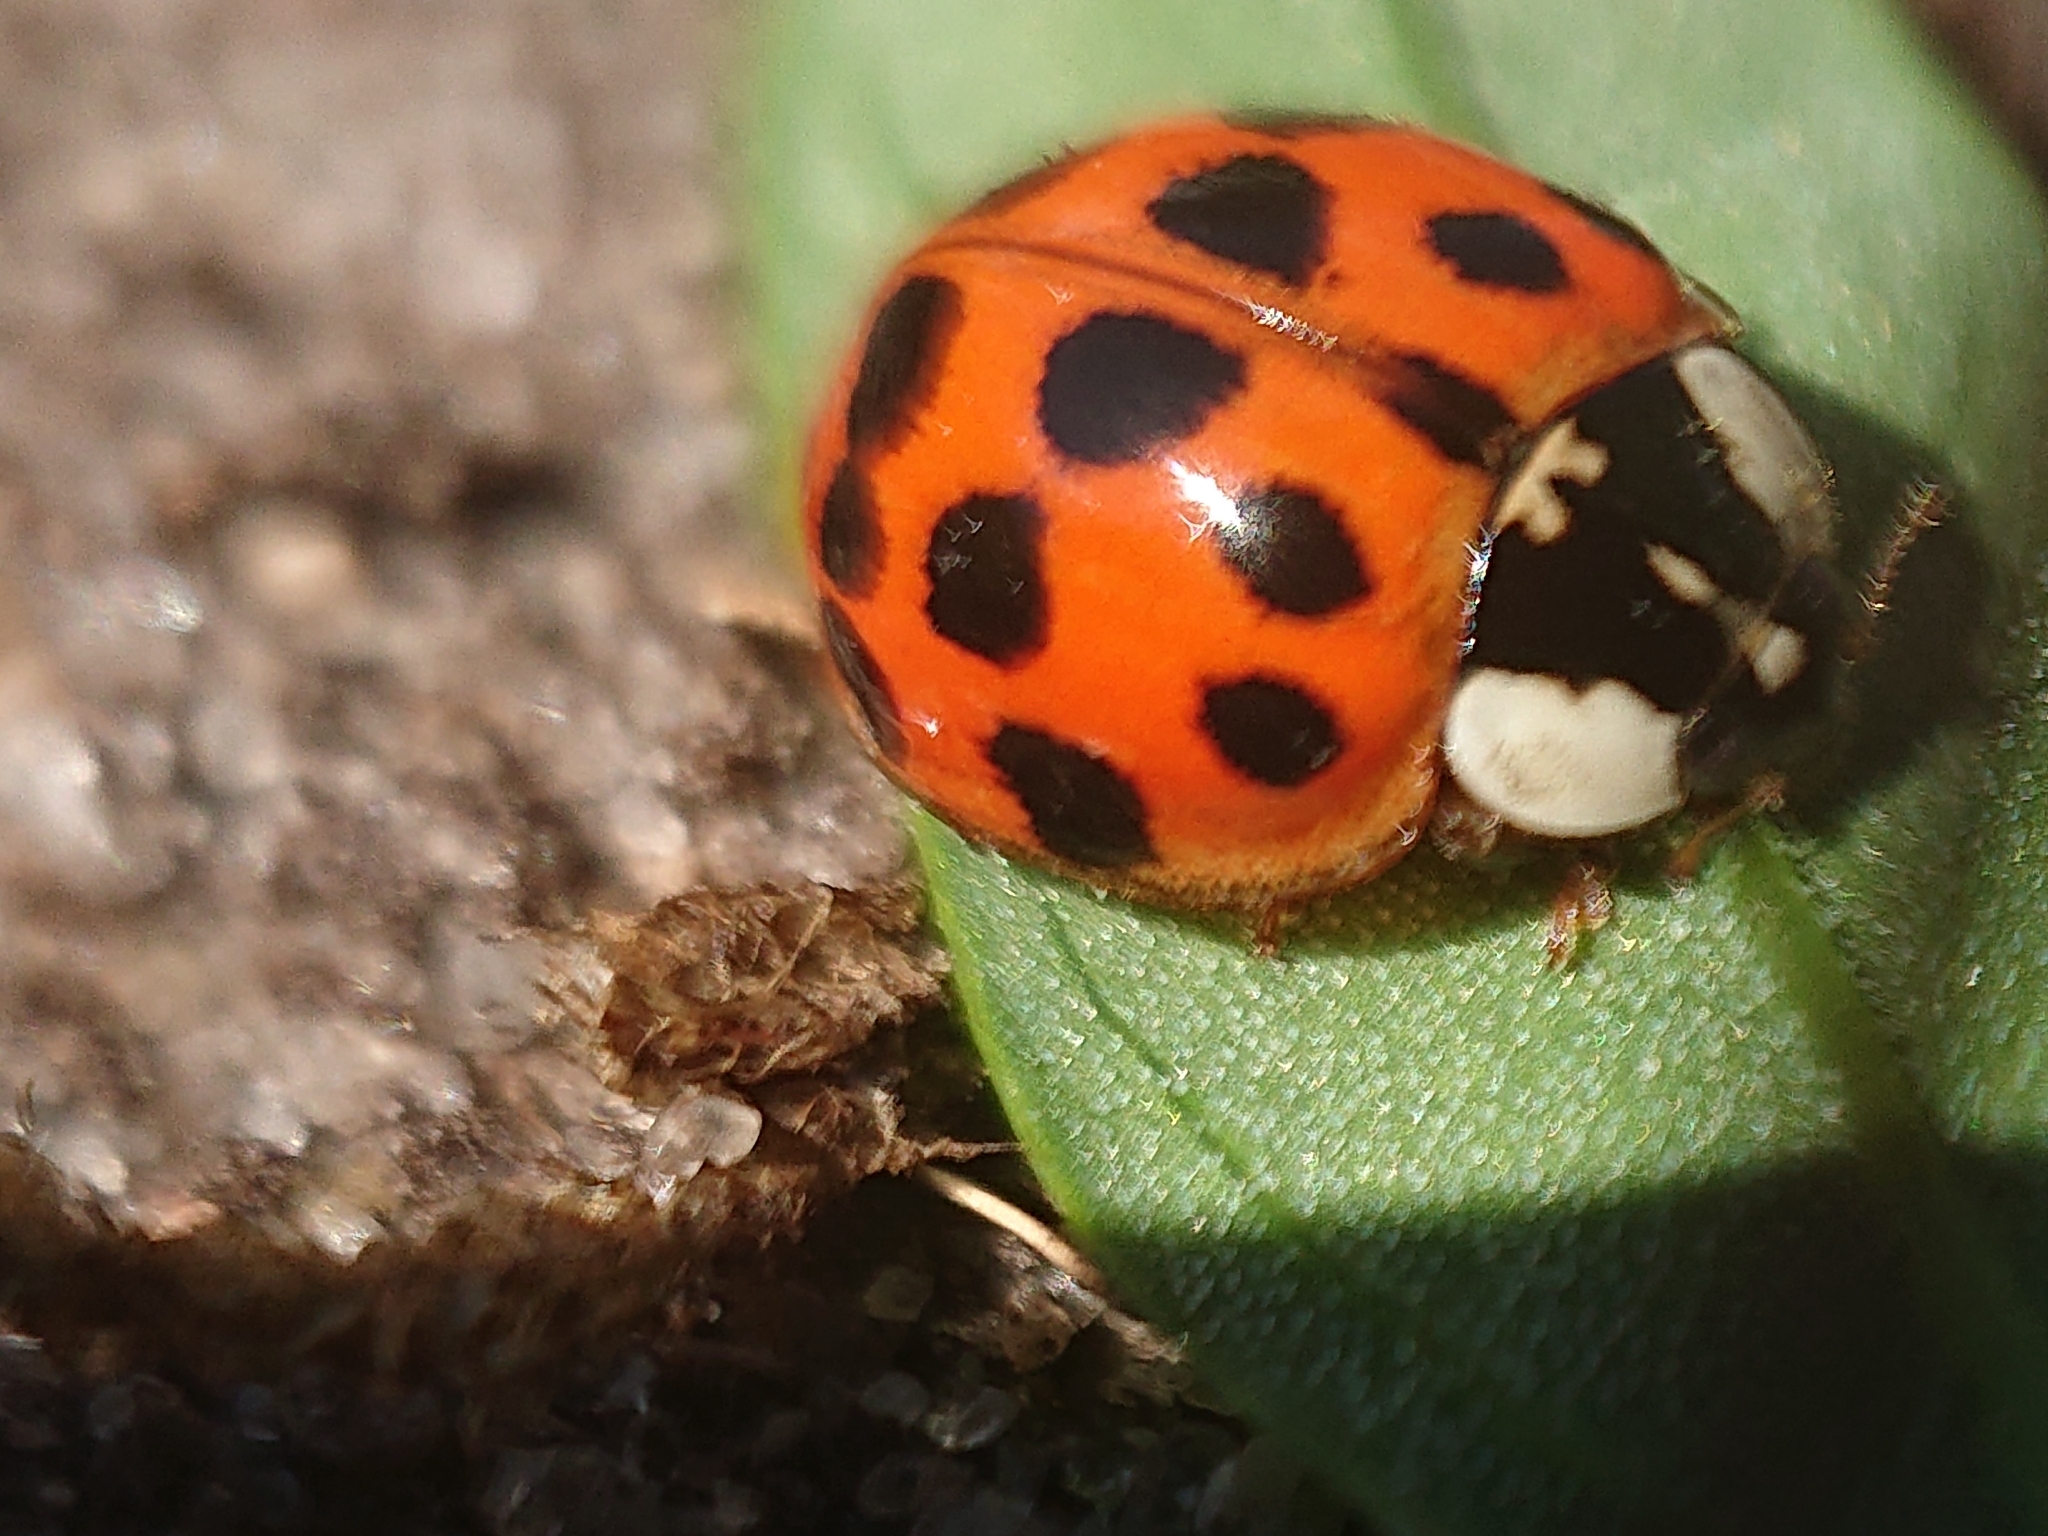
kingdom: Animalia
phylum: Arthropoda
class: Insecta
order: Coleoptera
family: Coccinellidae
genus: Harmonia
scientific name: Harmonia axyridis
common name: Harlequin ladybird
